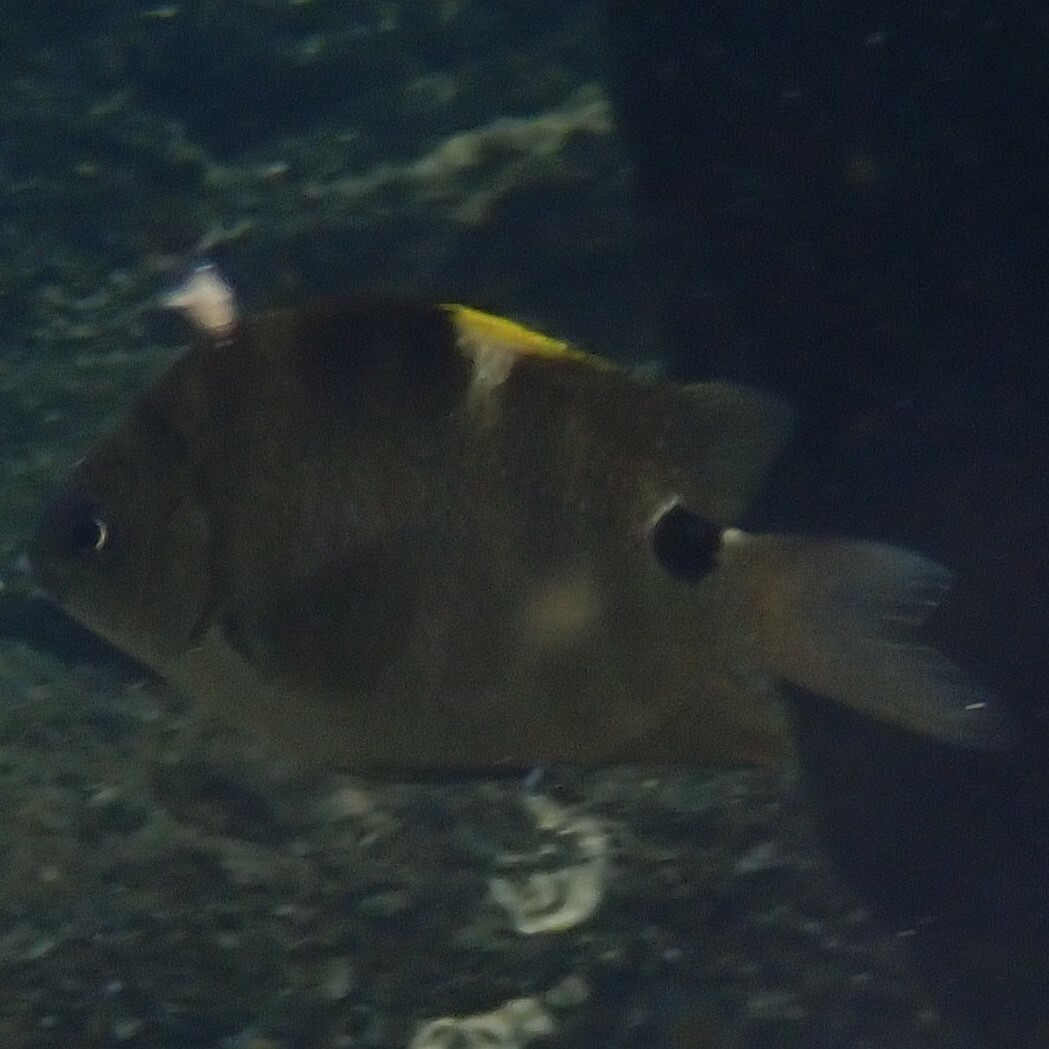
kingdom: Animalia
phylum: Chordata
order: Perciformes
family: Pomacentridae
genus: Abudefduf
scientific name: Abudefduf sordidus
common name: Blackspot sergeant
